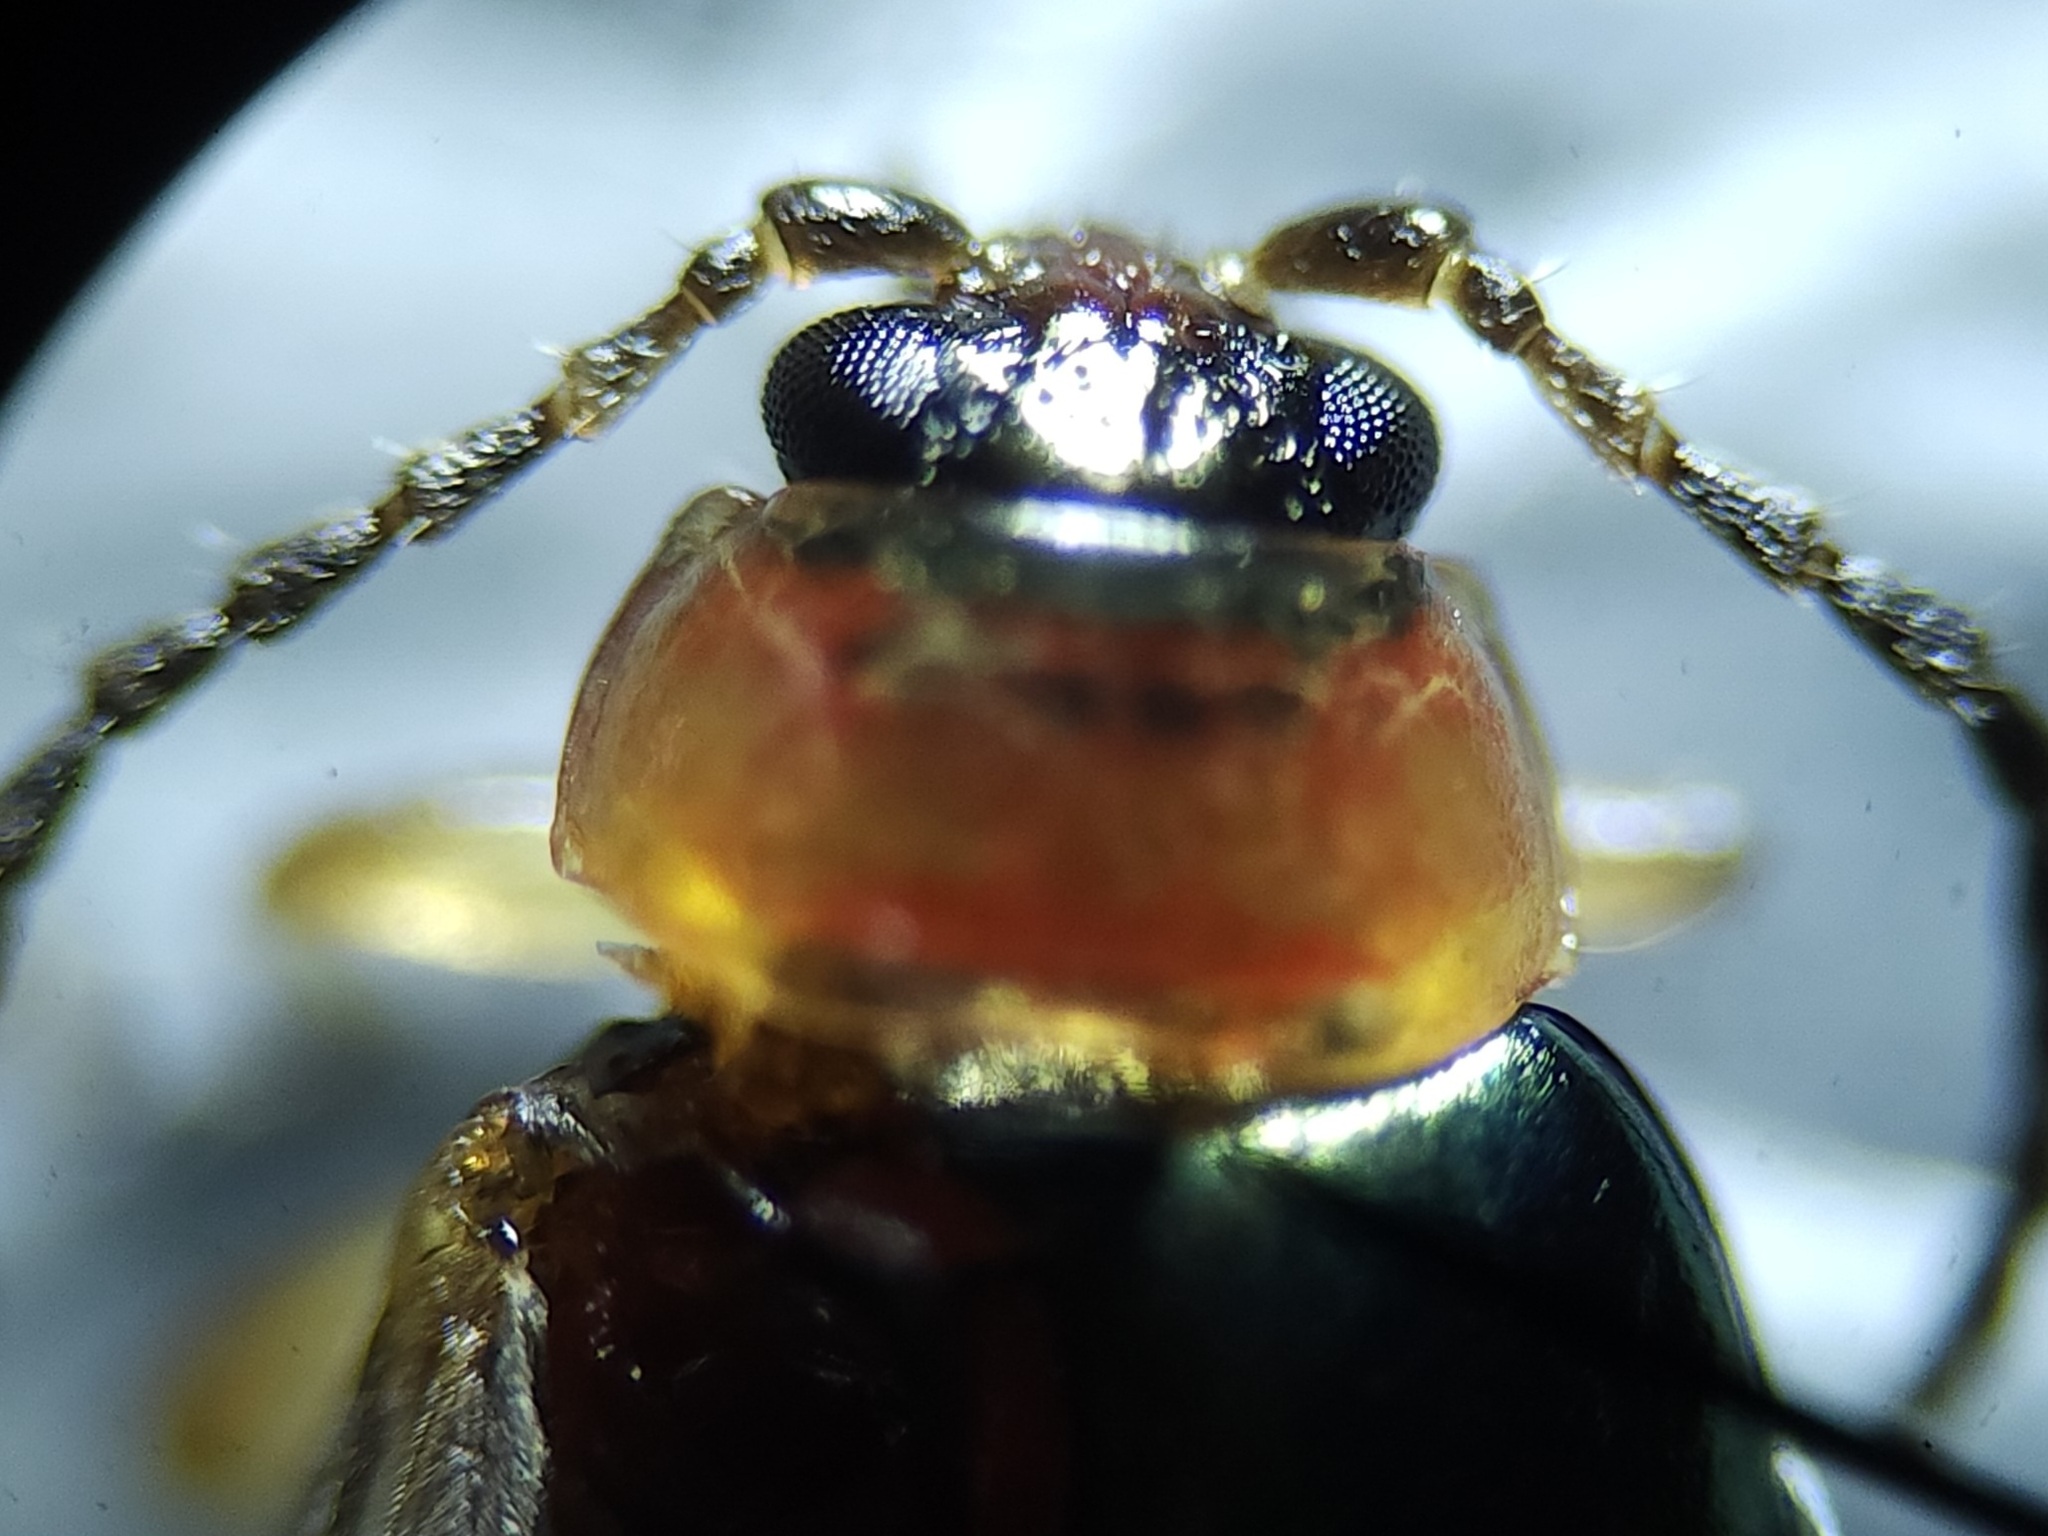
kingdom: Animalia
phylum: Arthropoda
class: Insecta
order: Coleoptera
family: Chrysomelidae
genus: Disonycha
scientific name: Disonycha collata
